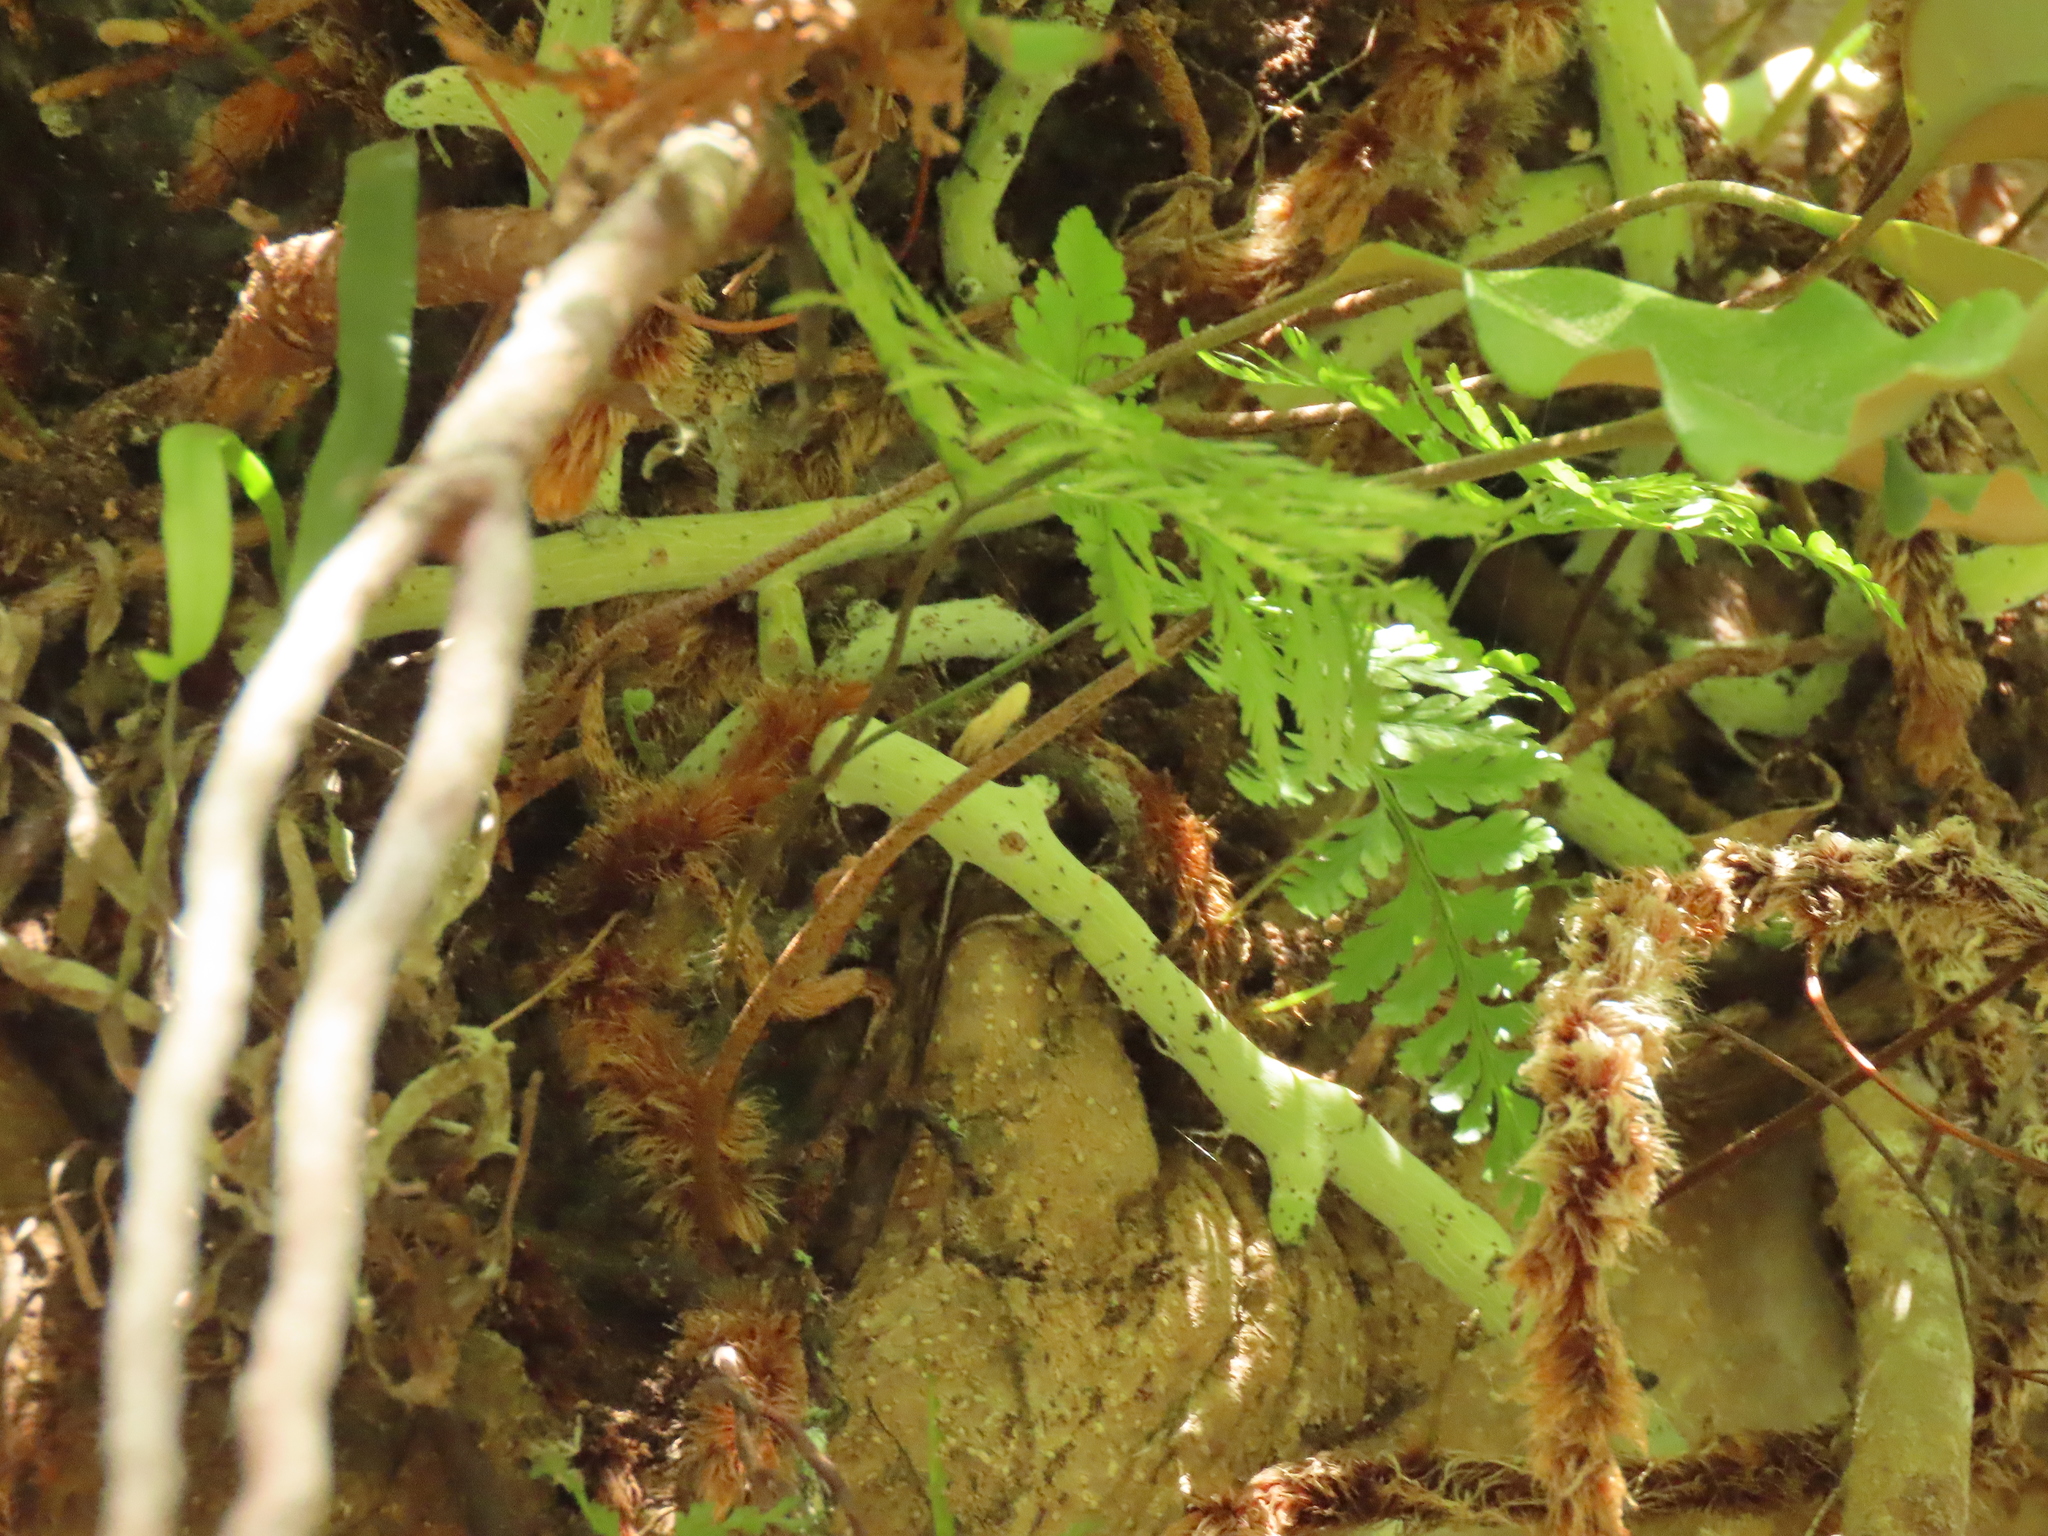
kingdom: Plantae
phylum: Tracheophyta
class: Polypodiopsida
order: Polypodiales
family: Polypodiaceae
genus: Goniophlebium
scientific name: Goniophlebium formosanum
